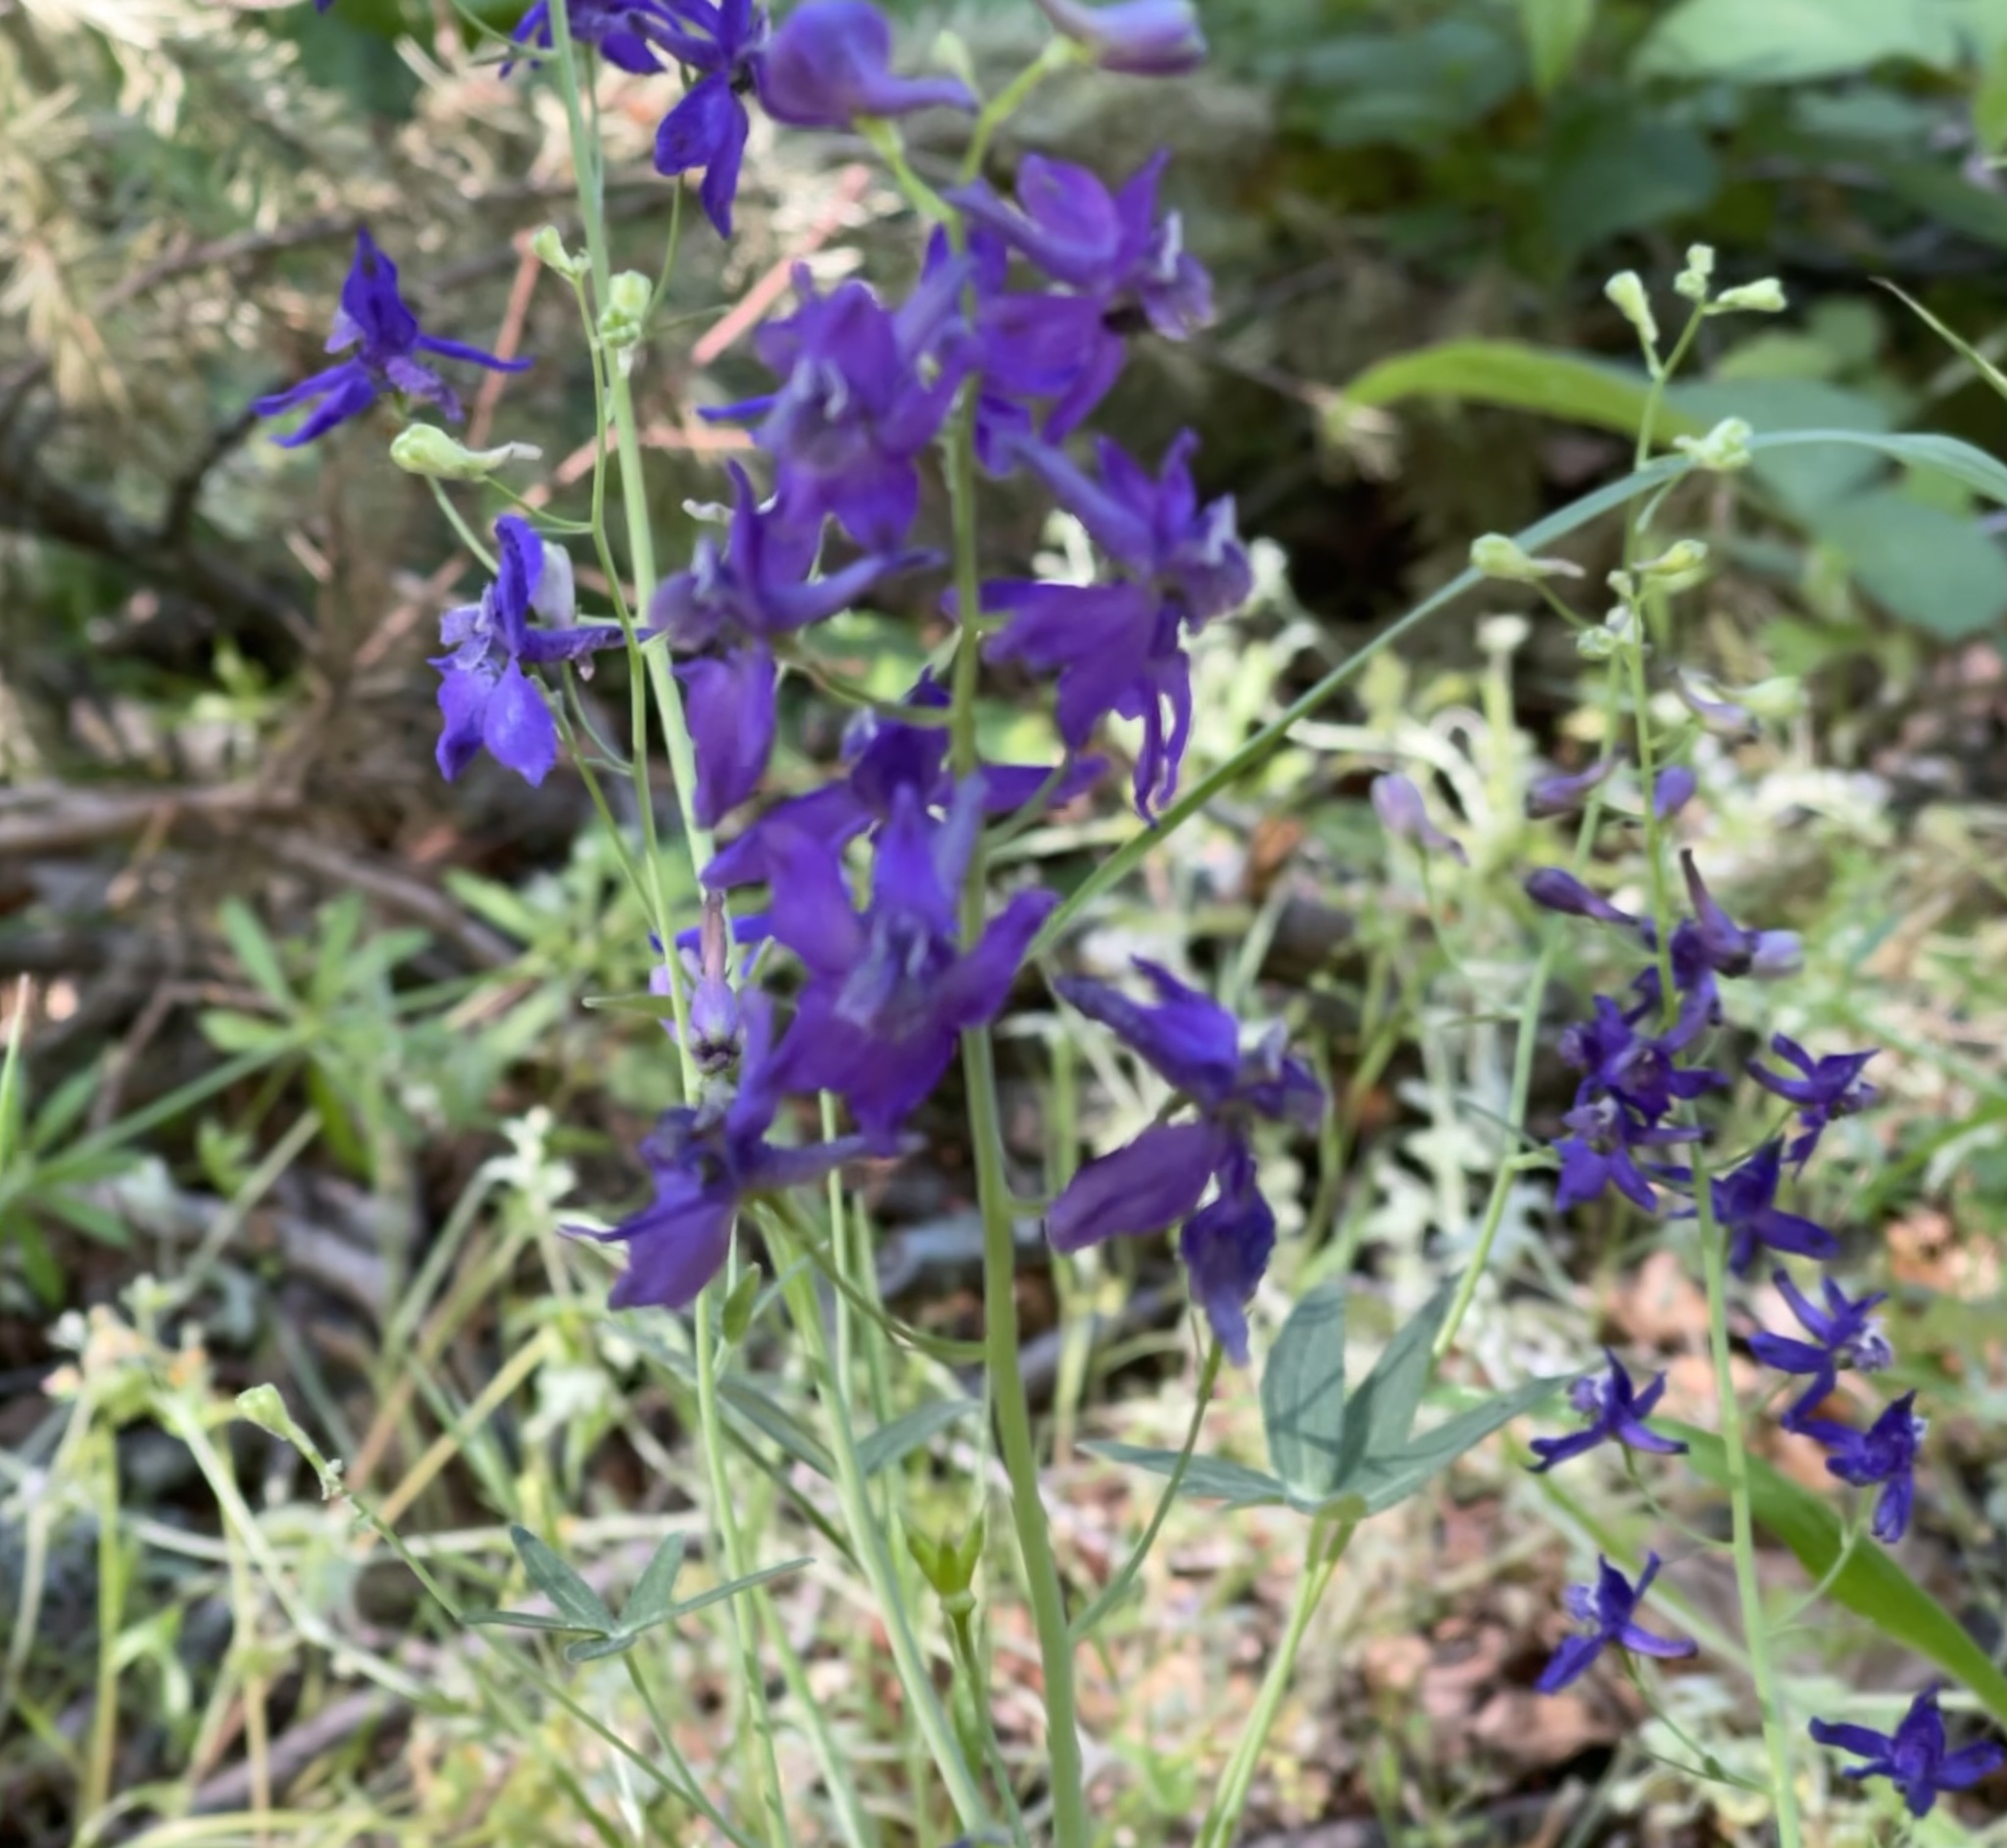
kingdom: Plantae
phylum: Tracheophyta
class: Magnoliopsida
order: Ranunculales
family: Ranunculaceae
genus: Delphinium
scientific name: Delphinium patens
